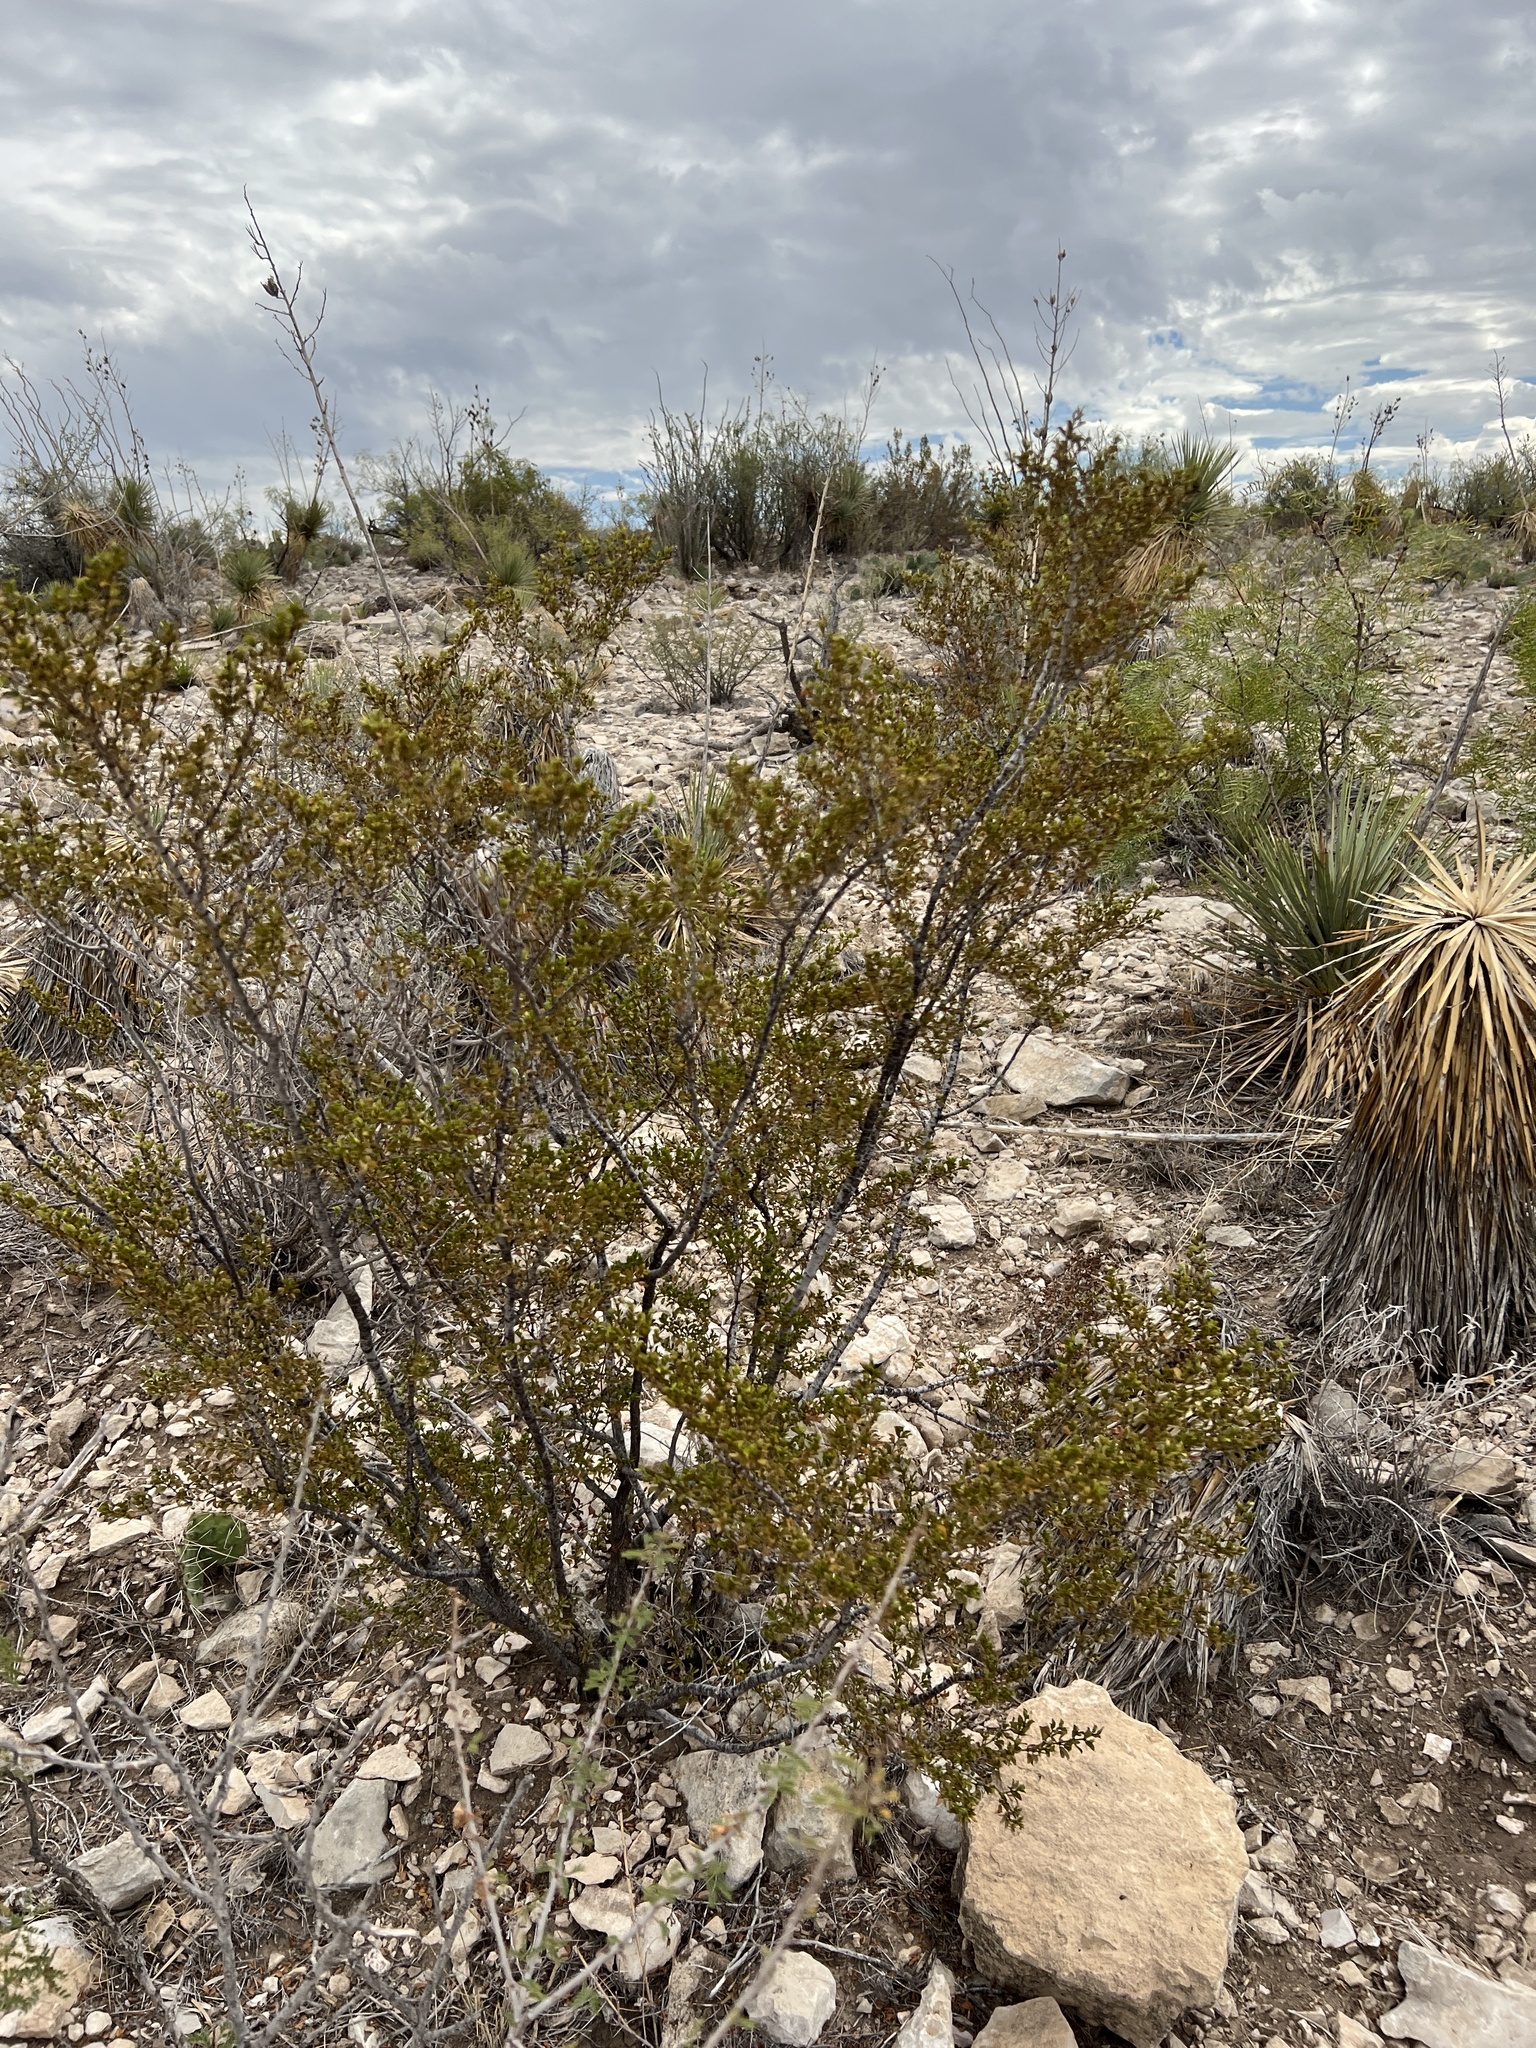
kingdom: Plantae
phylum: Tracheophyta
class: Magnoliopsida
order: Zygophyllales
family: Zygophyllaceae
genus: Larrea
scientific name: Larrea tridentata
